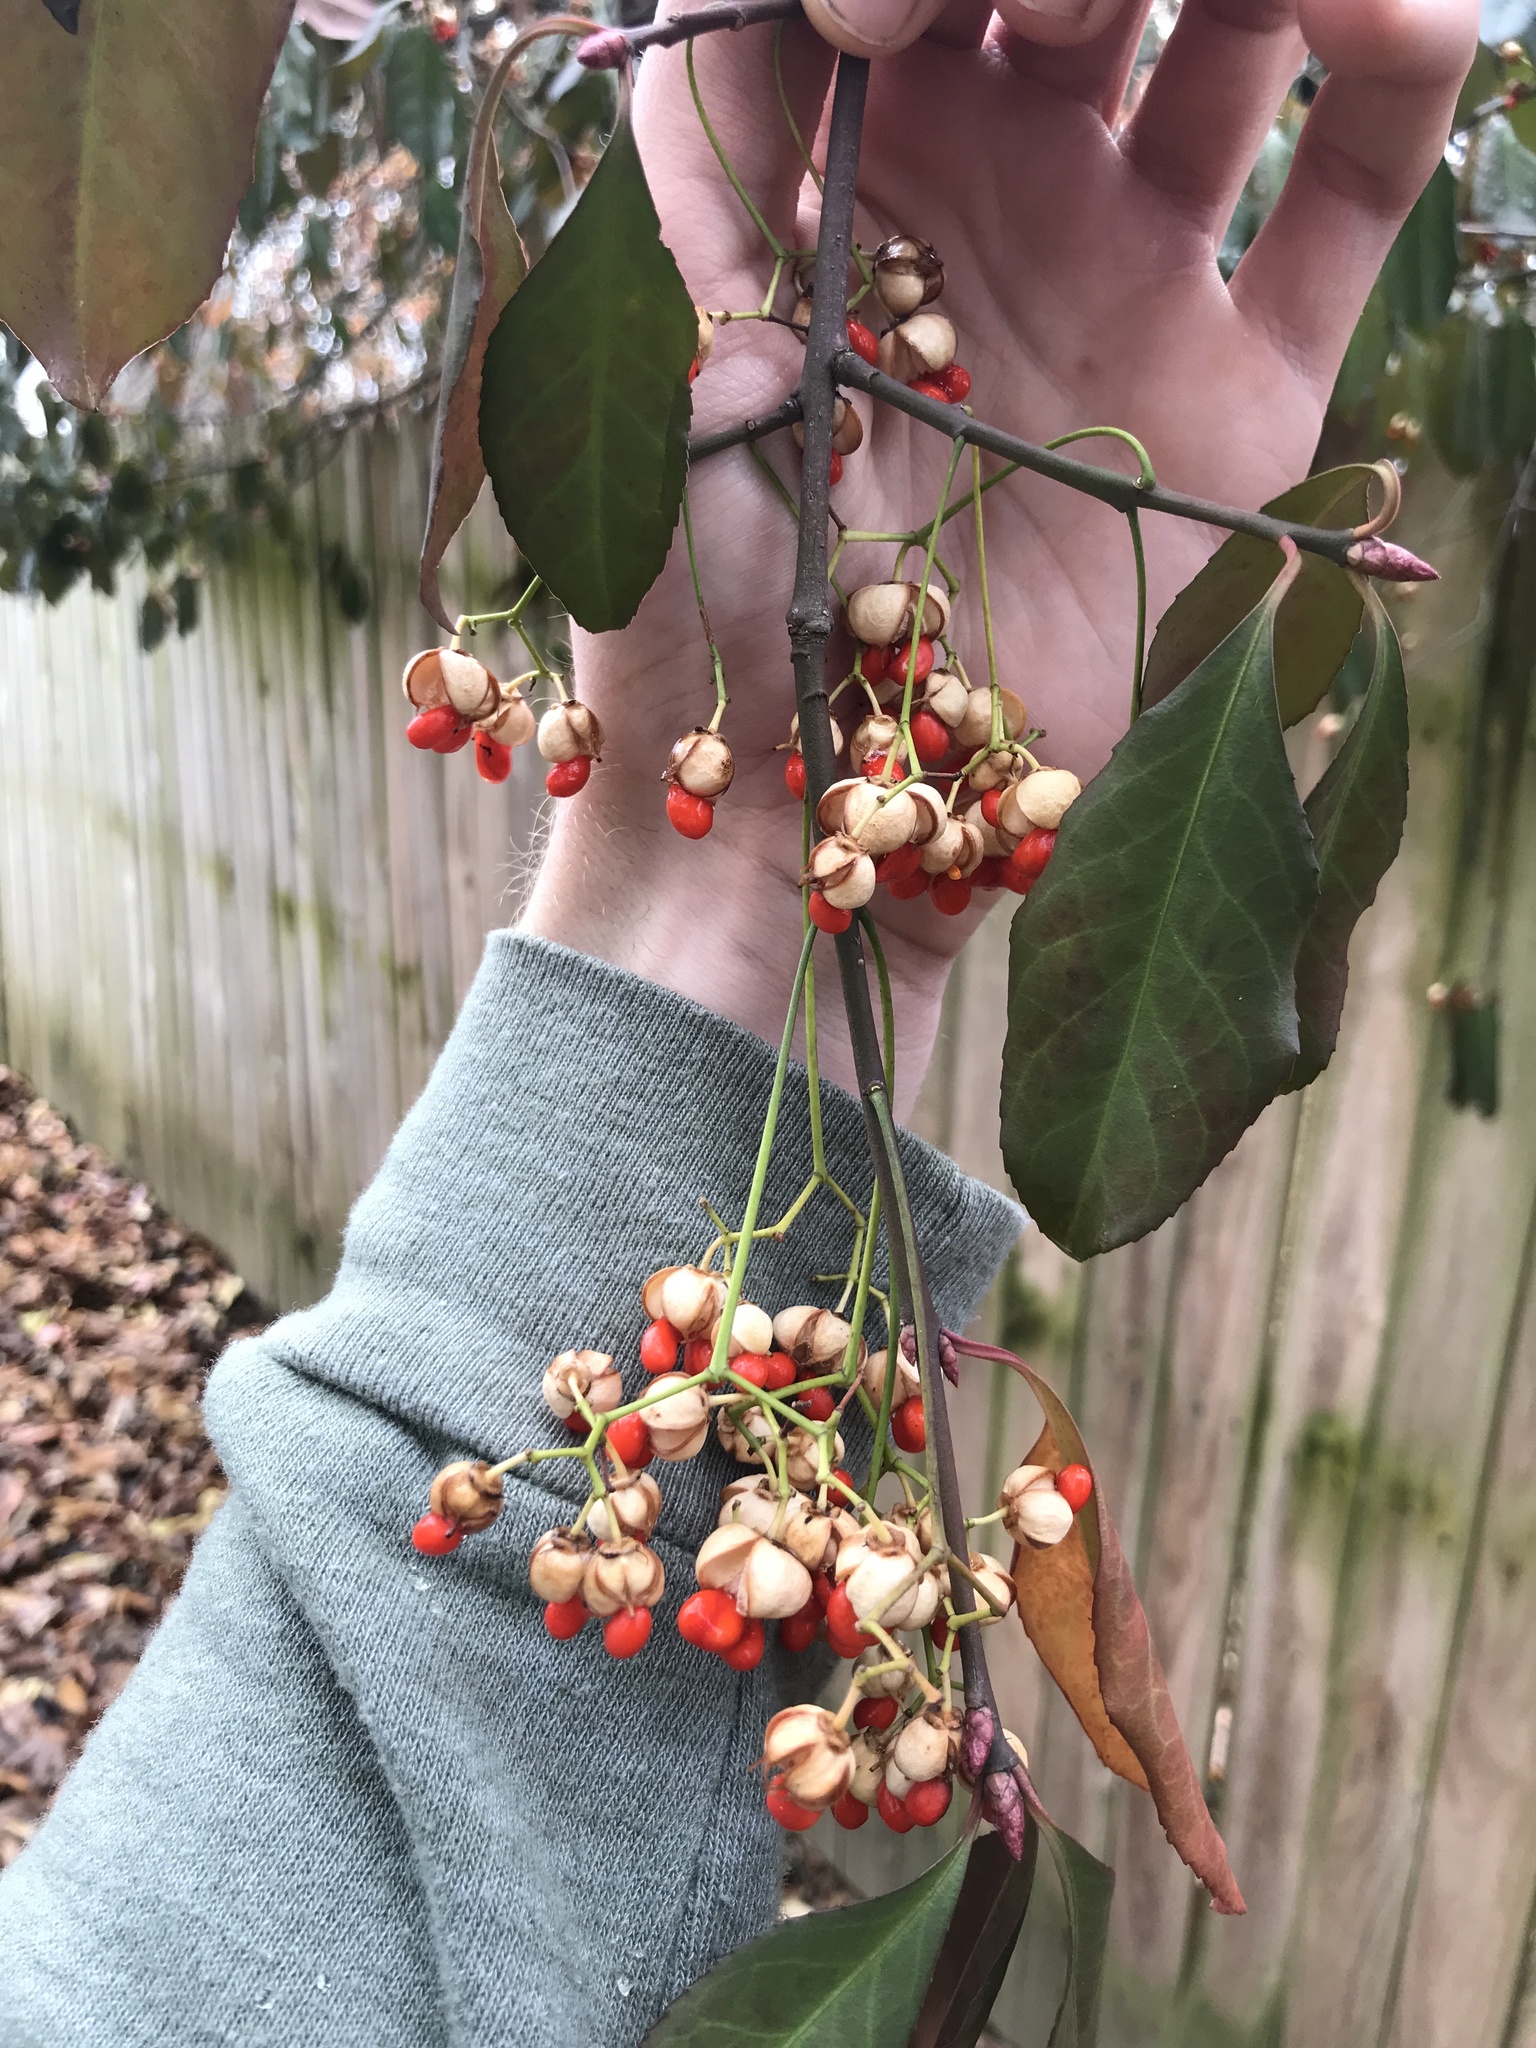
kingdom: Plantae
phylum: Tracheophyta
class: Magnoliopsida
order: Celastrales
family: Celastraceae
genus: Euonymus
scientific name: Euonymus fortunei
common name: Climbing euonymus
